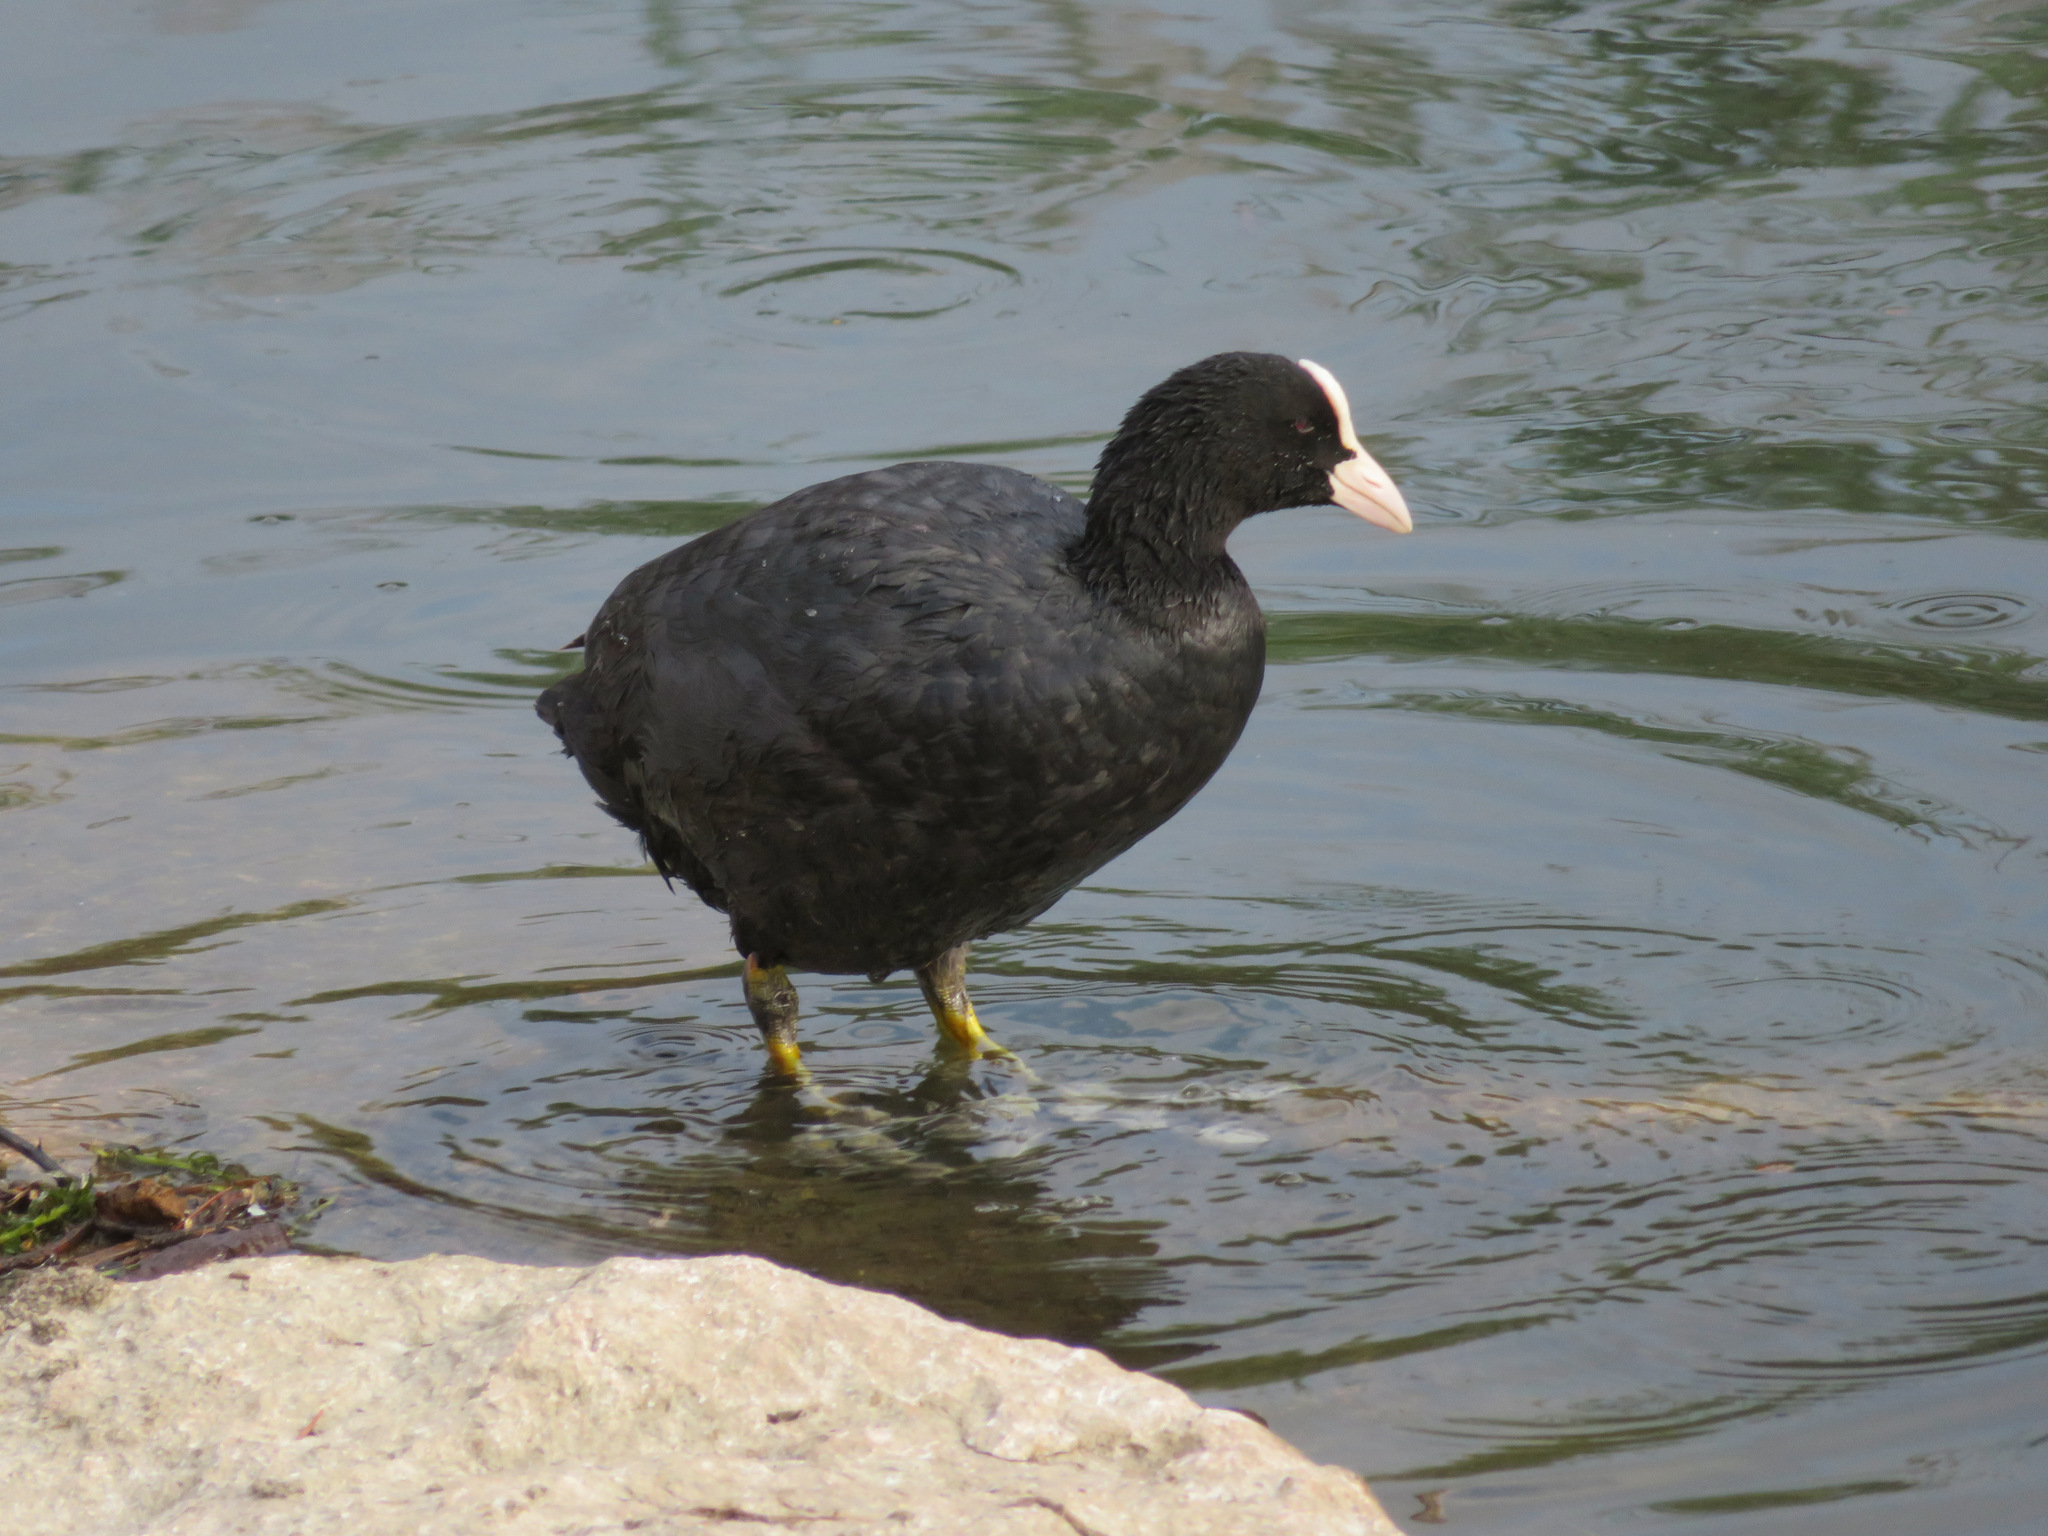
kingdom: Animalia
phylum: Chordata
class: Aves
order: Gruiformes
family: Rallidae
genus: Fulica
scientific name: Fulica atra
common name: Eurasian coot
